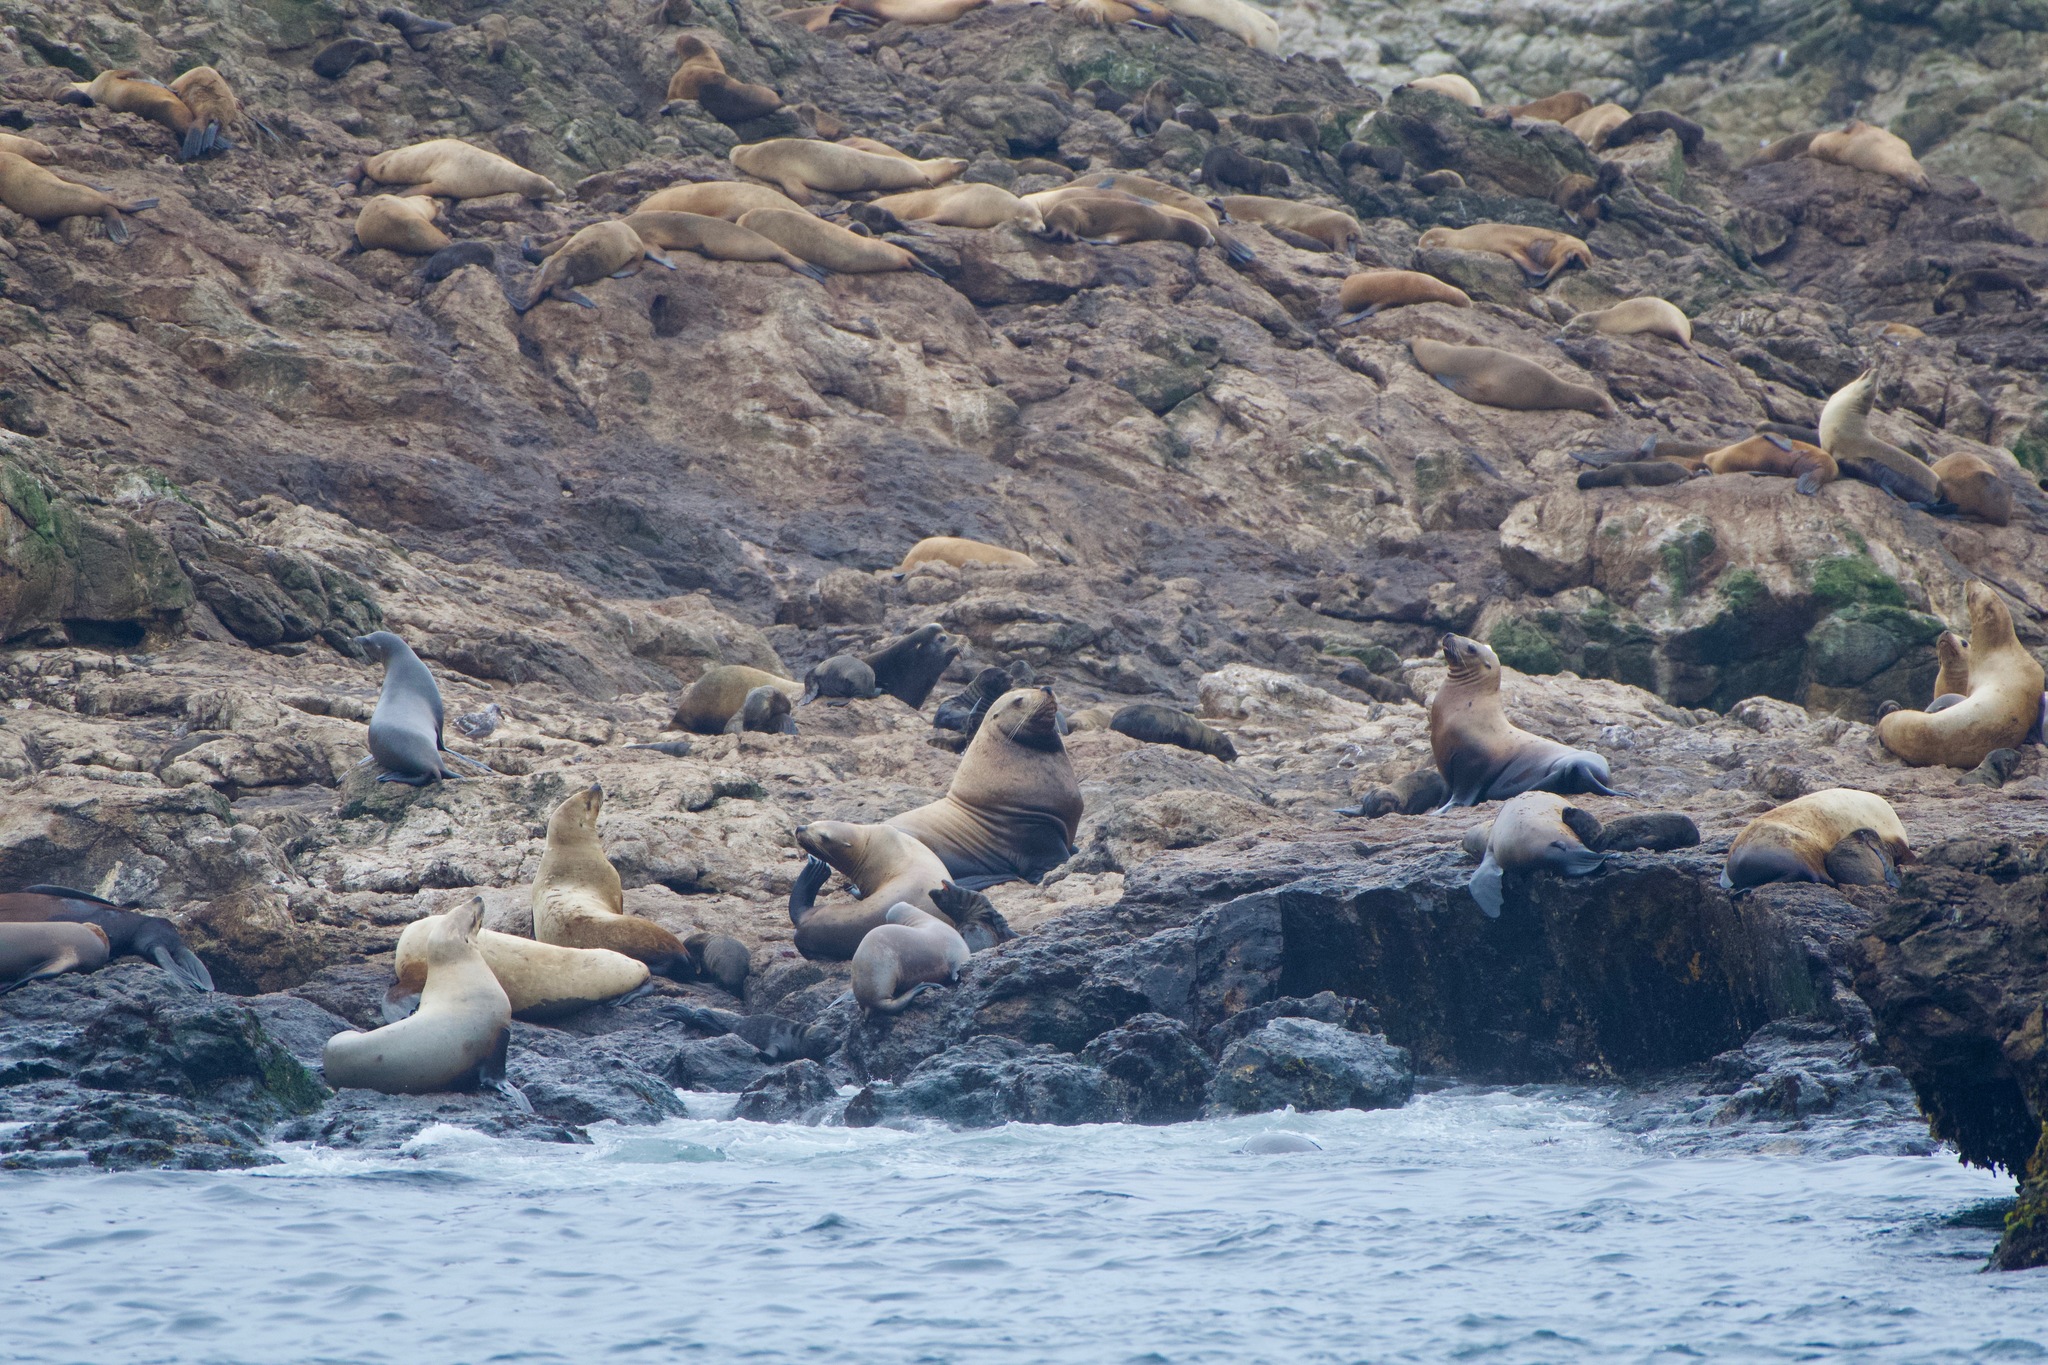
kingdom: Animalia
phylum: Chordata
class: Mammalia
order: Carnivora
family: Otariidae
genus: Eumetopias
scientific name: Eumetopias jubatus
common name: Steller sea lion
